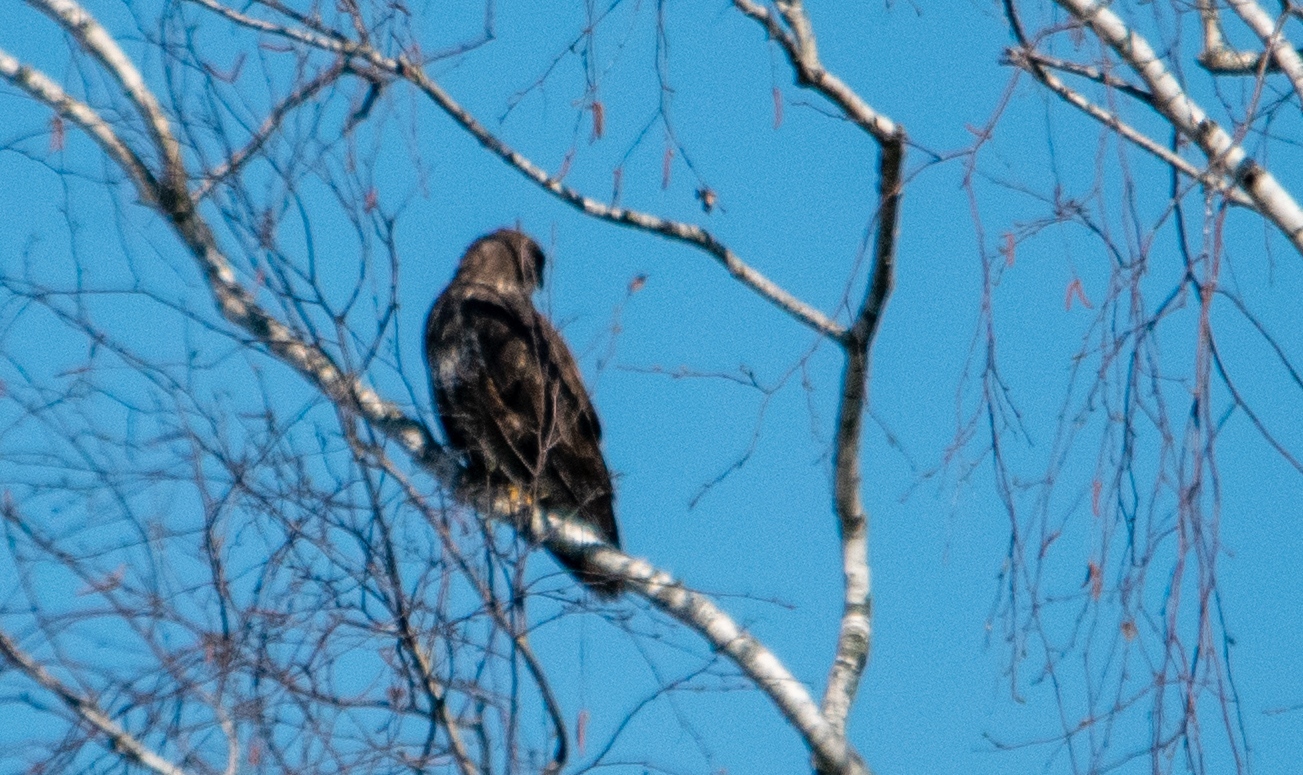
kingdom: Animalia
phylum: Chordata
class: Aves
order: Accipitriformes
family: Accipitridae
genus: Buteo
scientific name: Buteo buteo
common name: Common buzzard
